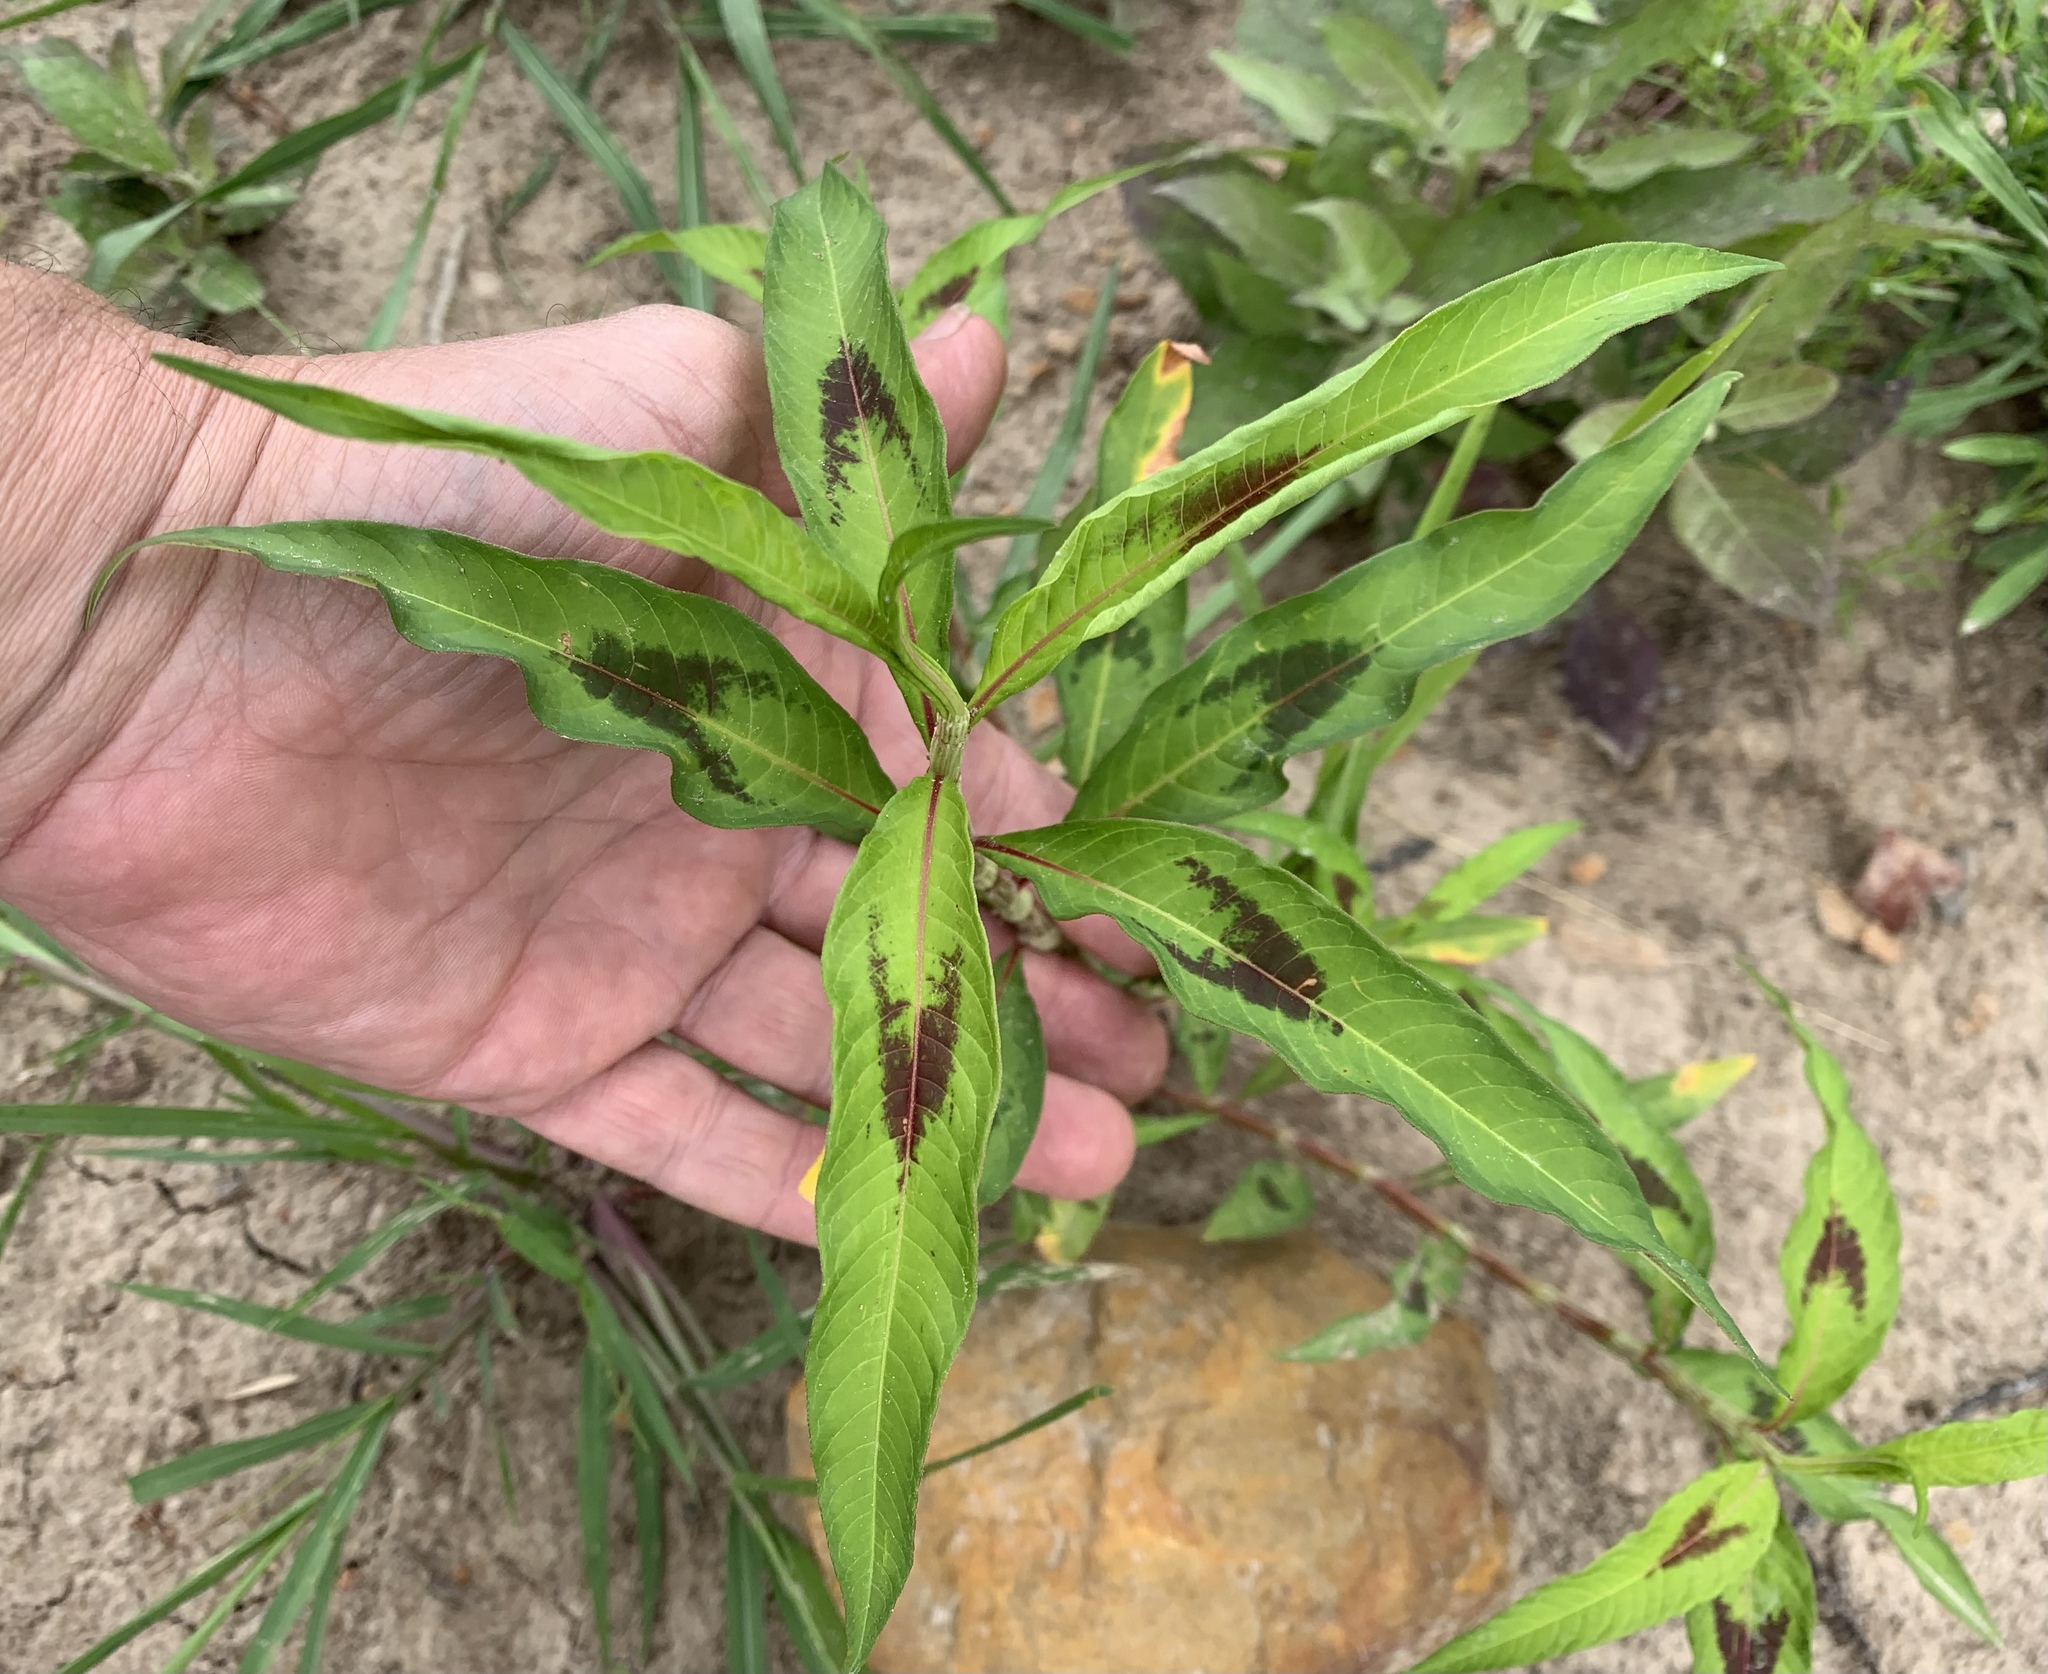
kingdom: Plantae
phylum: Tracheophyta
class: Magnoliopsida
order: Caryophyllales
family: Polygonaceae
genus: Persicaria
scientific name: Persicaria maculosa
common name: Redshank
